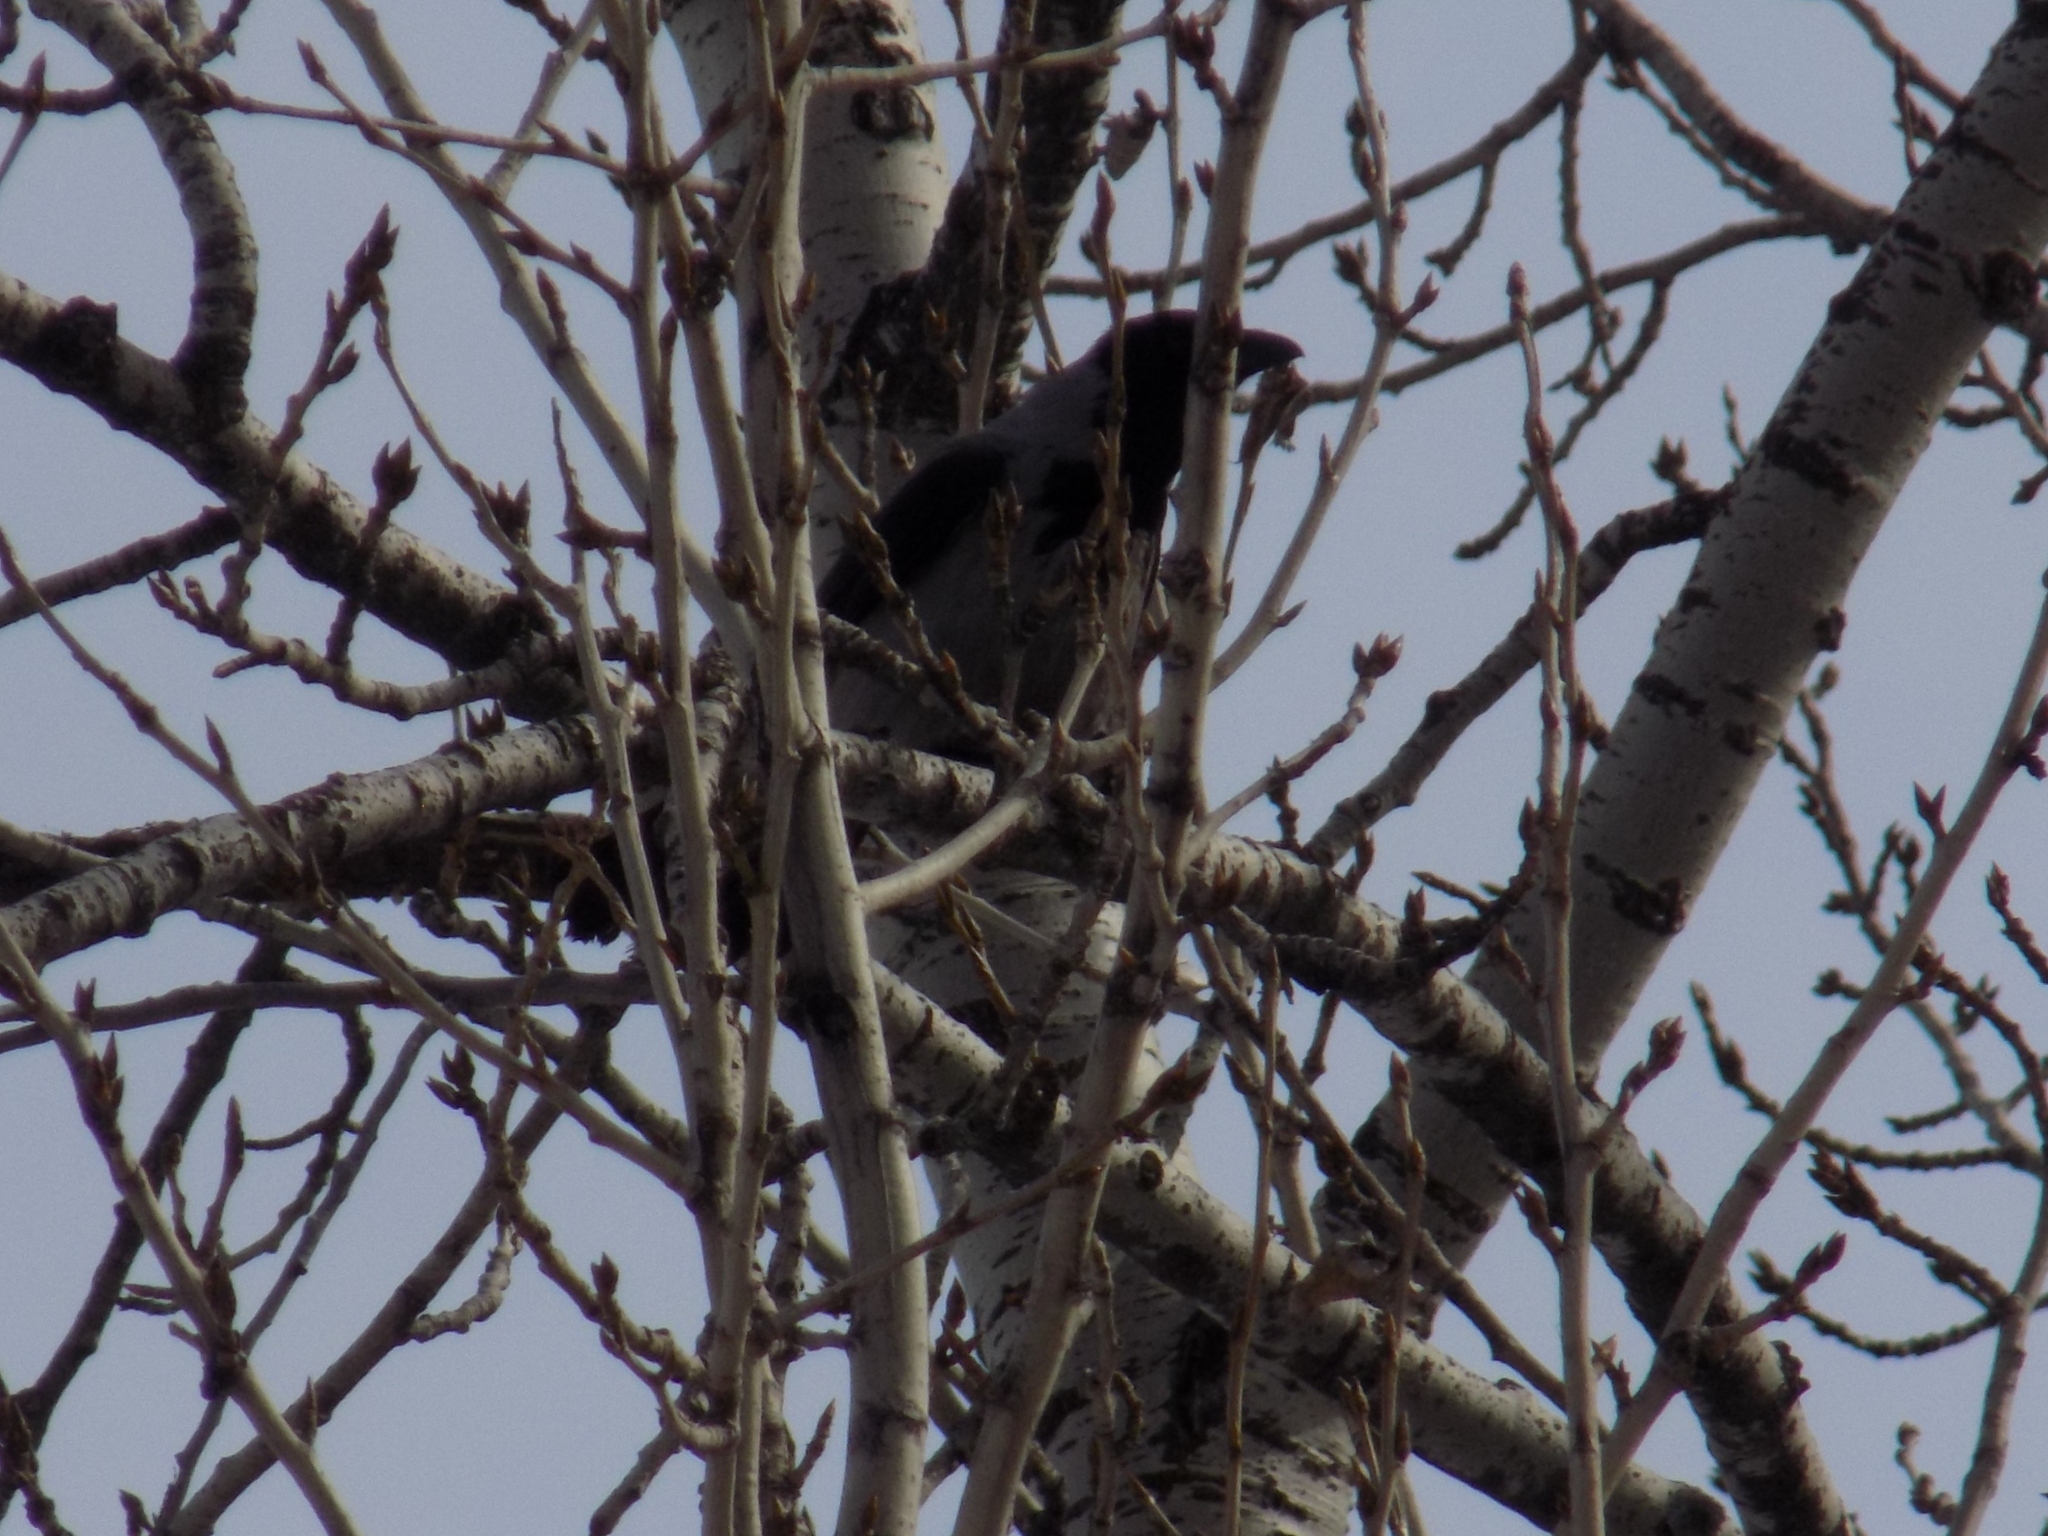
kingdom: Animalia
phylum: Chordata
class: Aves
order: Passeriformes
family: Corvidae
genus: Corvus
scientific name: Corvus cornix
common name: Hooded crow
